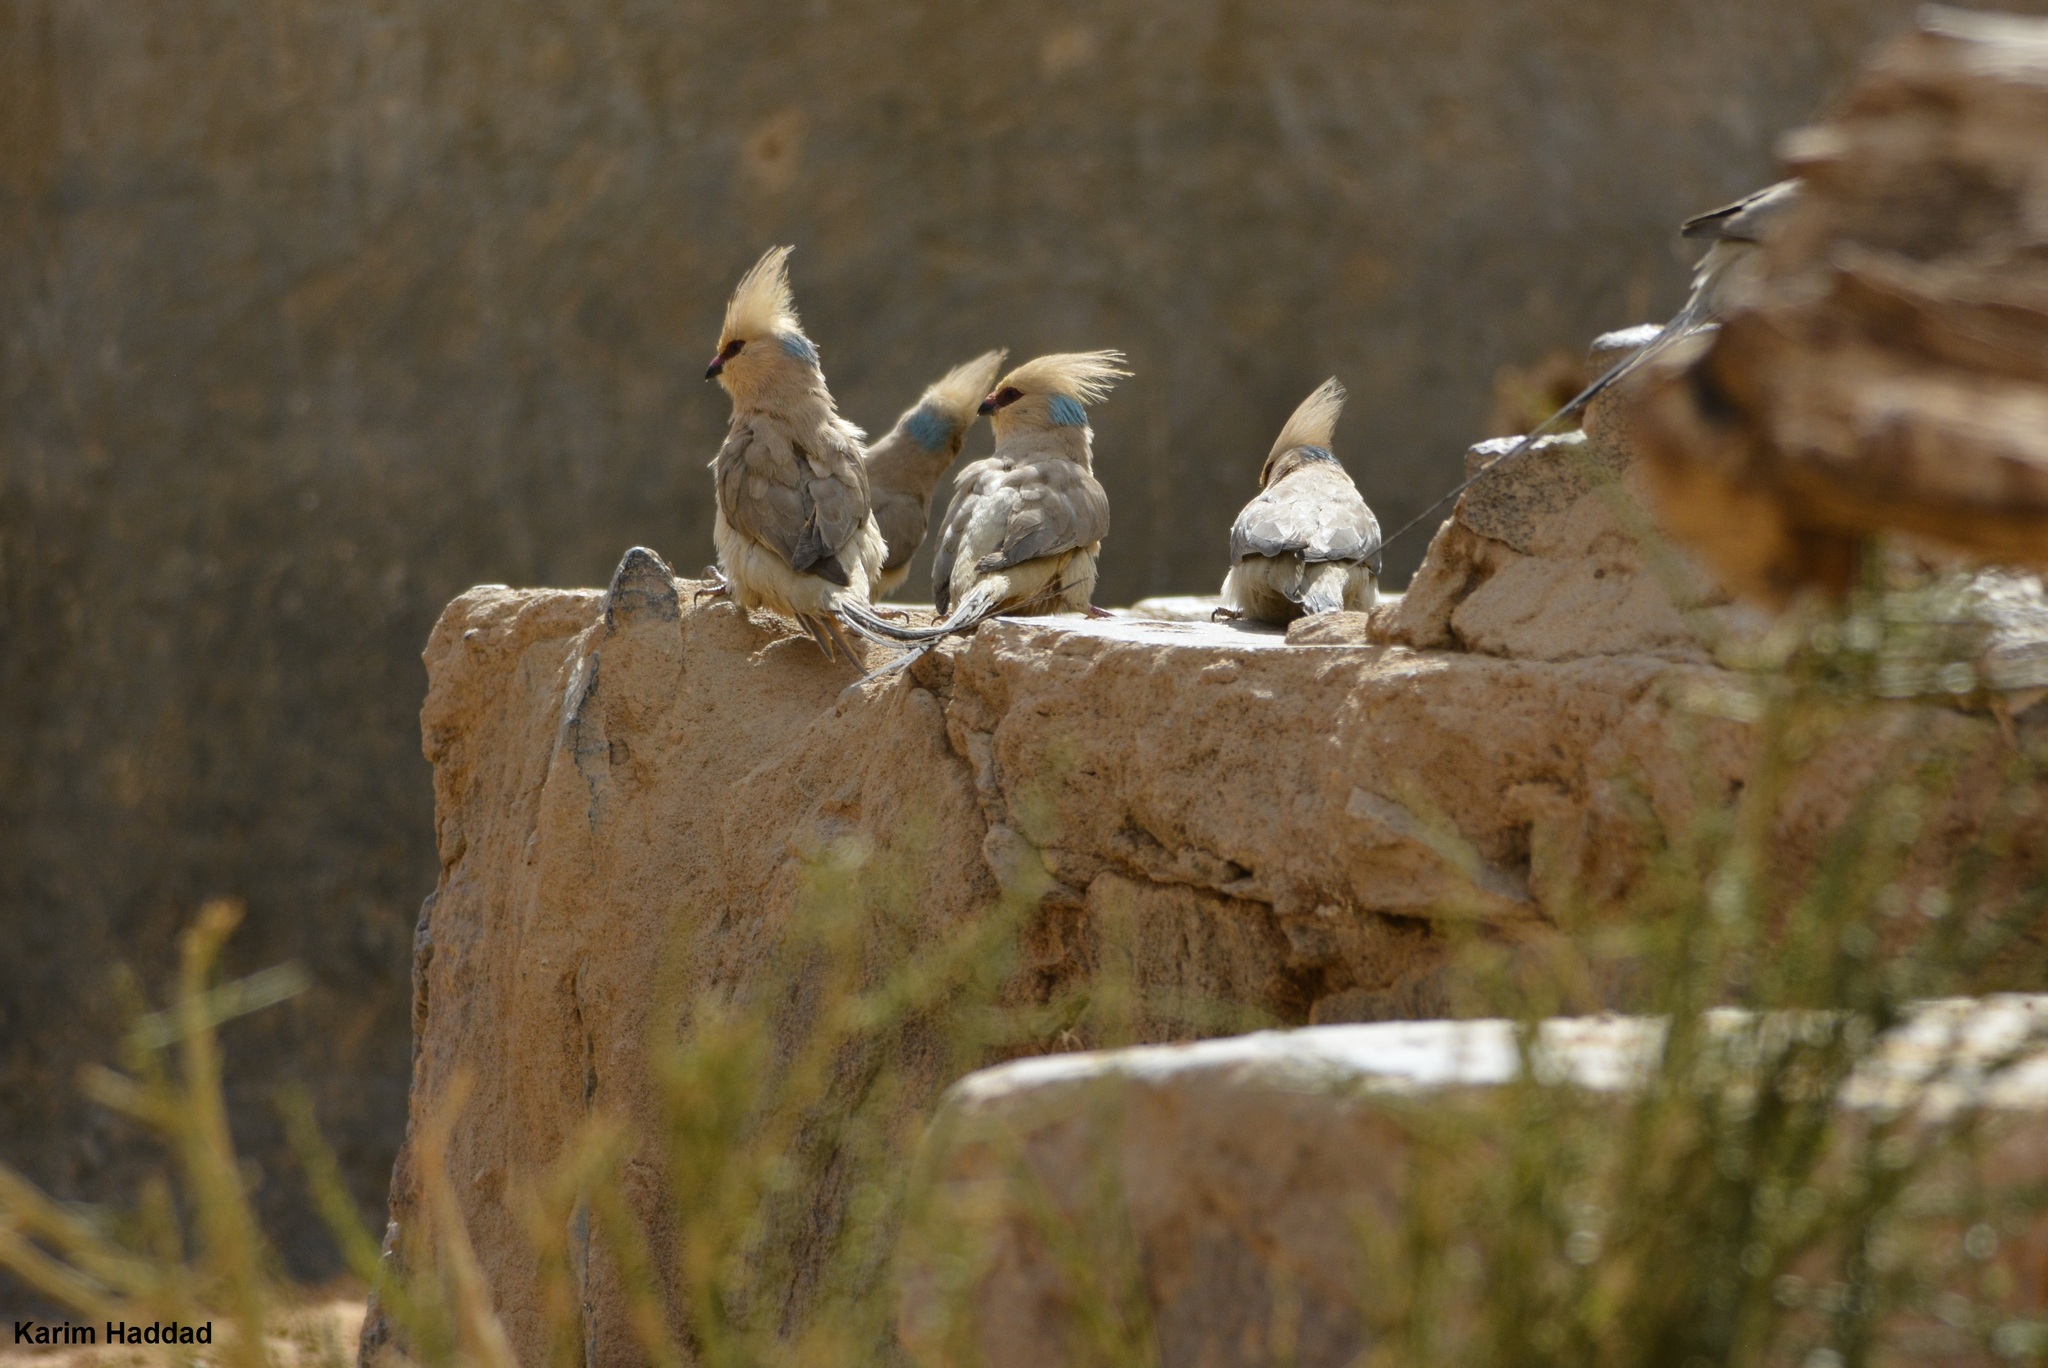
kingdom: Animalia
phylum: Chordata
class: Aves
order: Coliiformes
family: Coliidae
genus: Urocolius
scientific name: Urocolius macrourus
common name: Blue-naped mousebird
